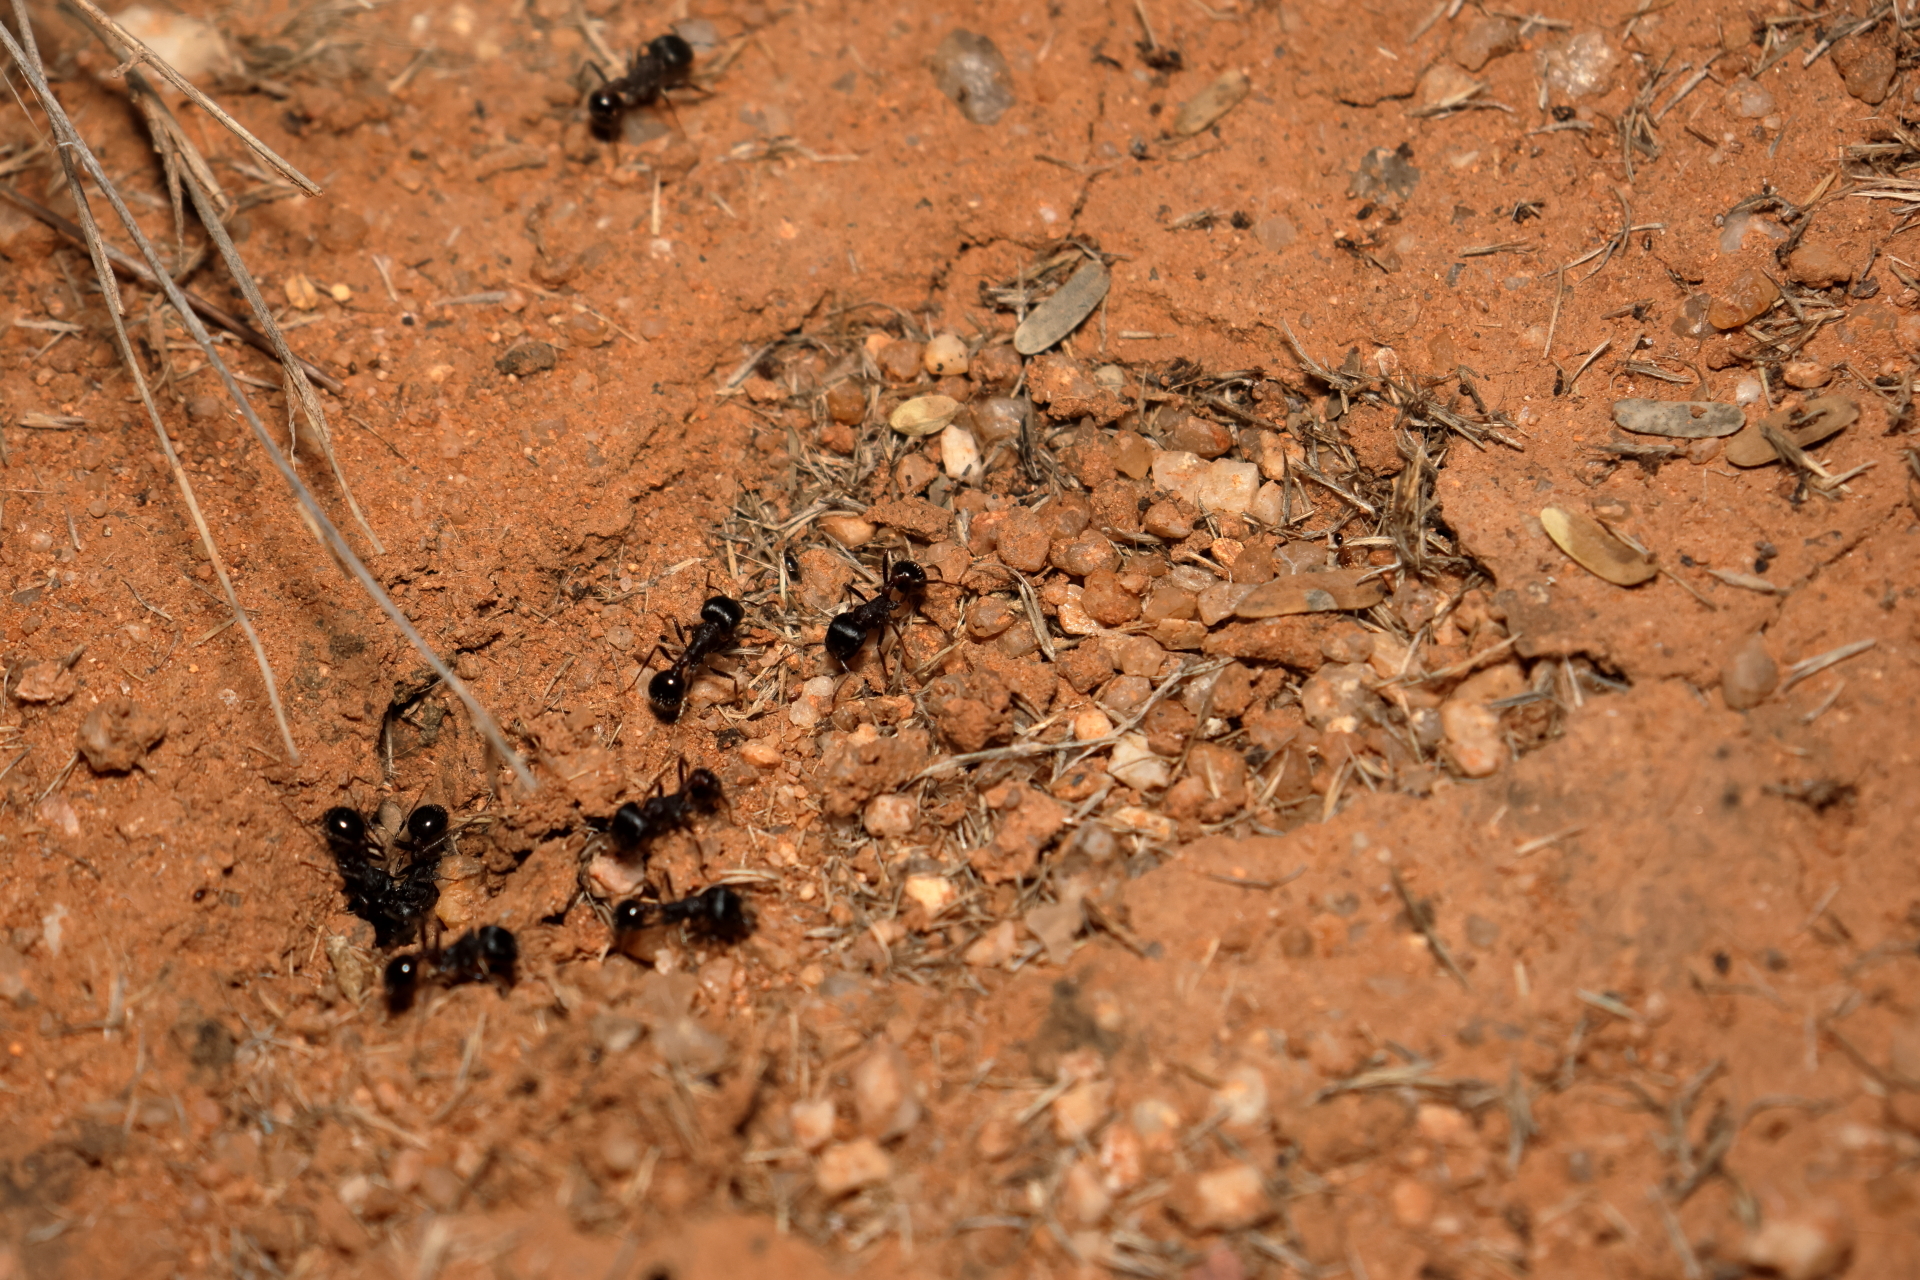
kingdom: Animalia
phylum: Arthropoda
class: Insecta
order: Hymenoptera
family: Formicidae
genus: Pogonomyrmex
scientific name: Pogonomyrmex rugosus
